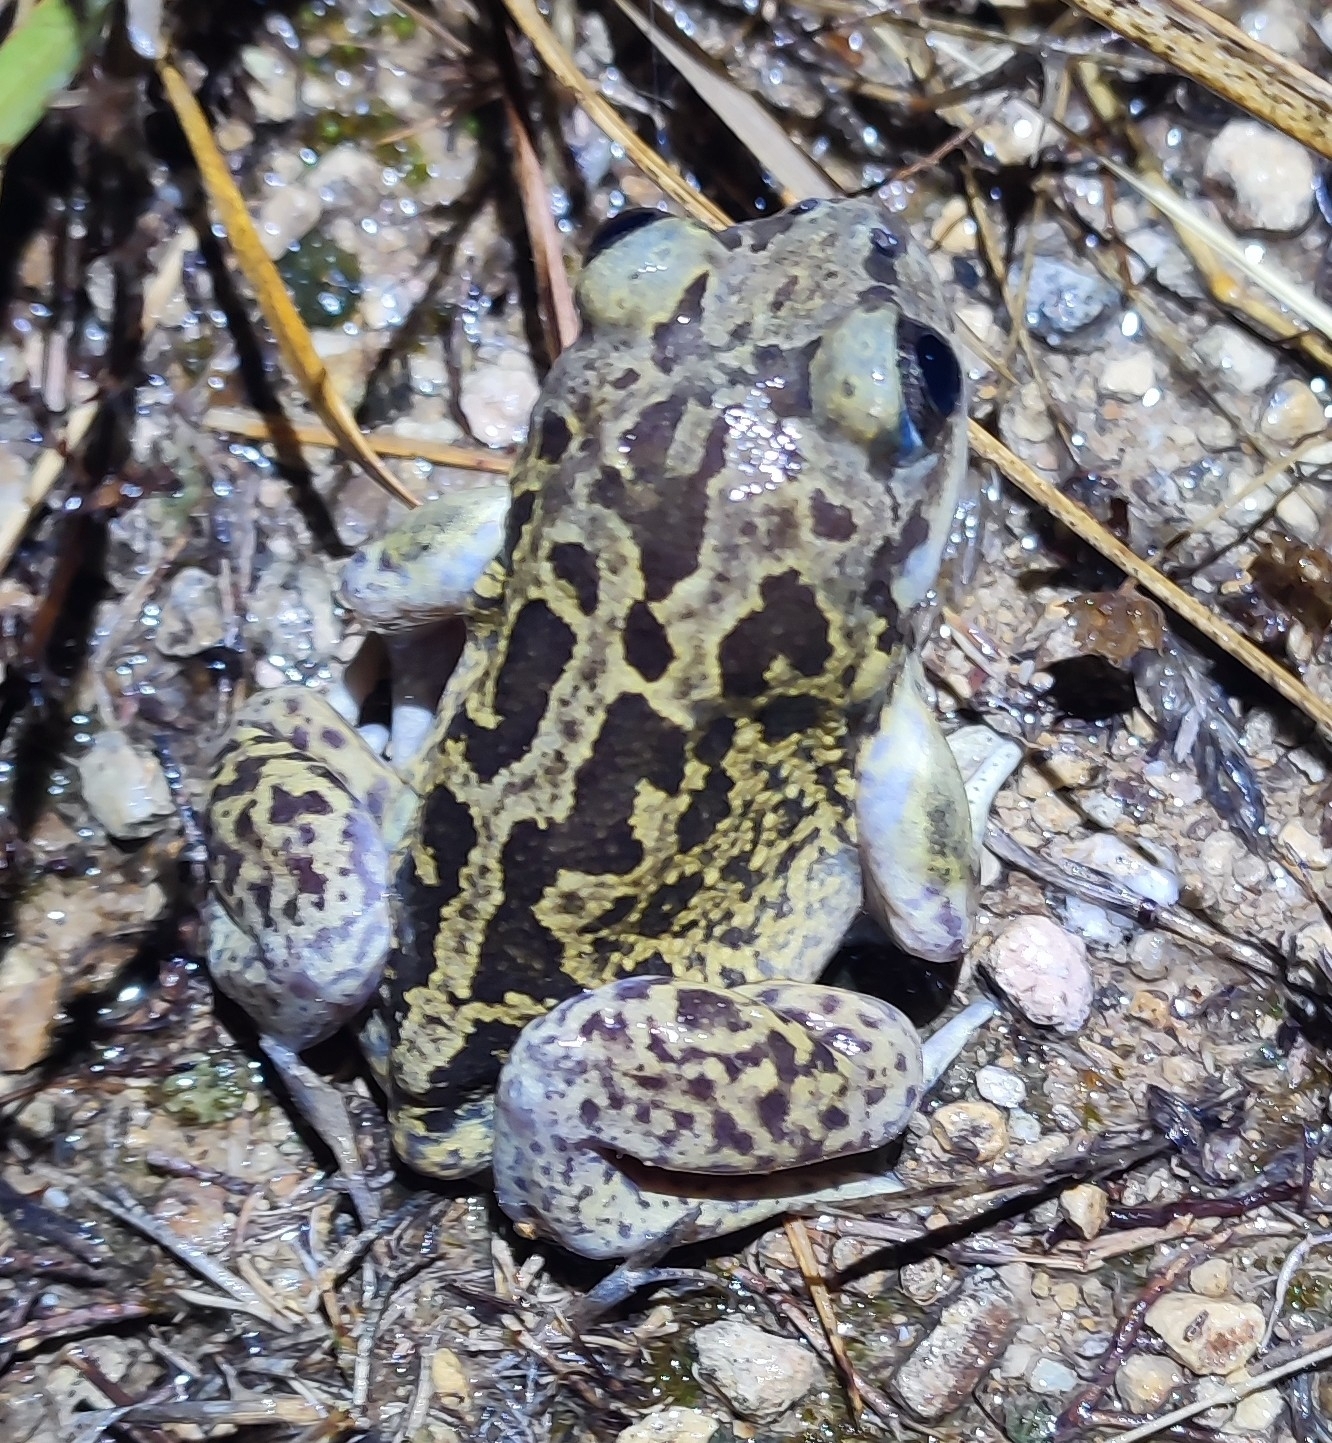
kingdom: Animalia
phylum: Chordata
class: Amphibia
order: Anura
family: Pelobatidae
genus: Pelobates
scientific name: Pelobates cultripes
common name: Western spadefoot
